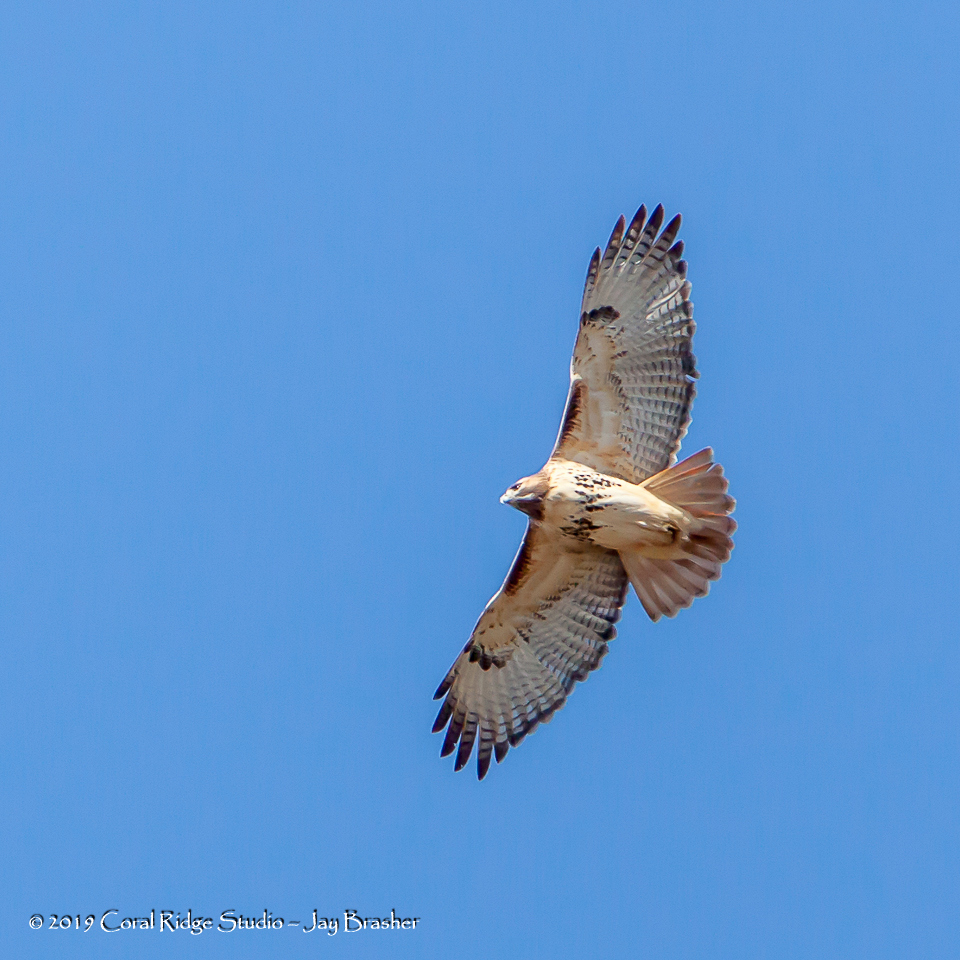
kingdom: Animalia
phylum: Chordata
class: Aves
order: Accipitriformes
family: Accipitridae
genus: Buteo
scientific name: Buteo jamaicensis
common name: Red-tailed hawk
